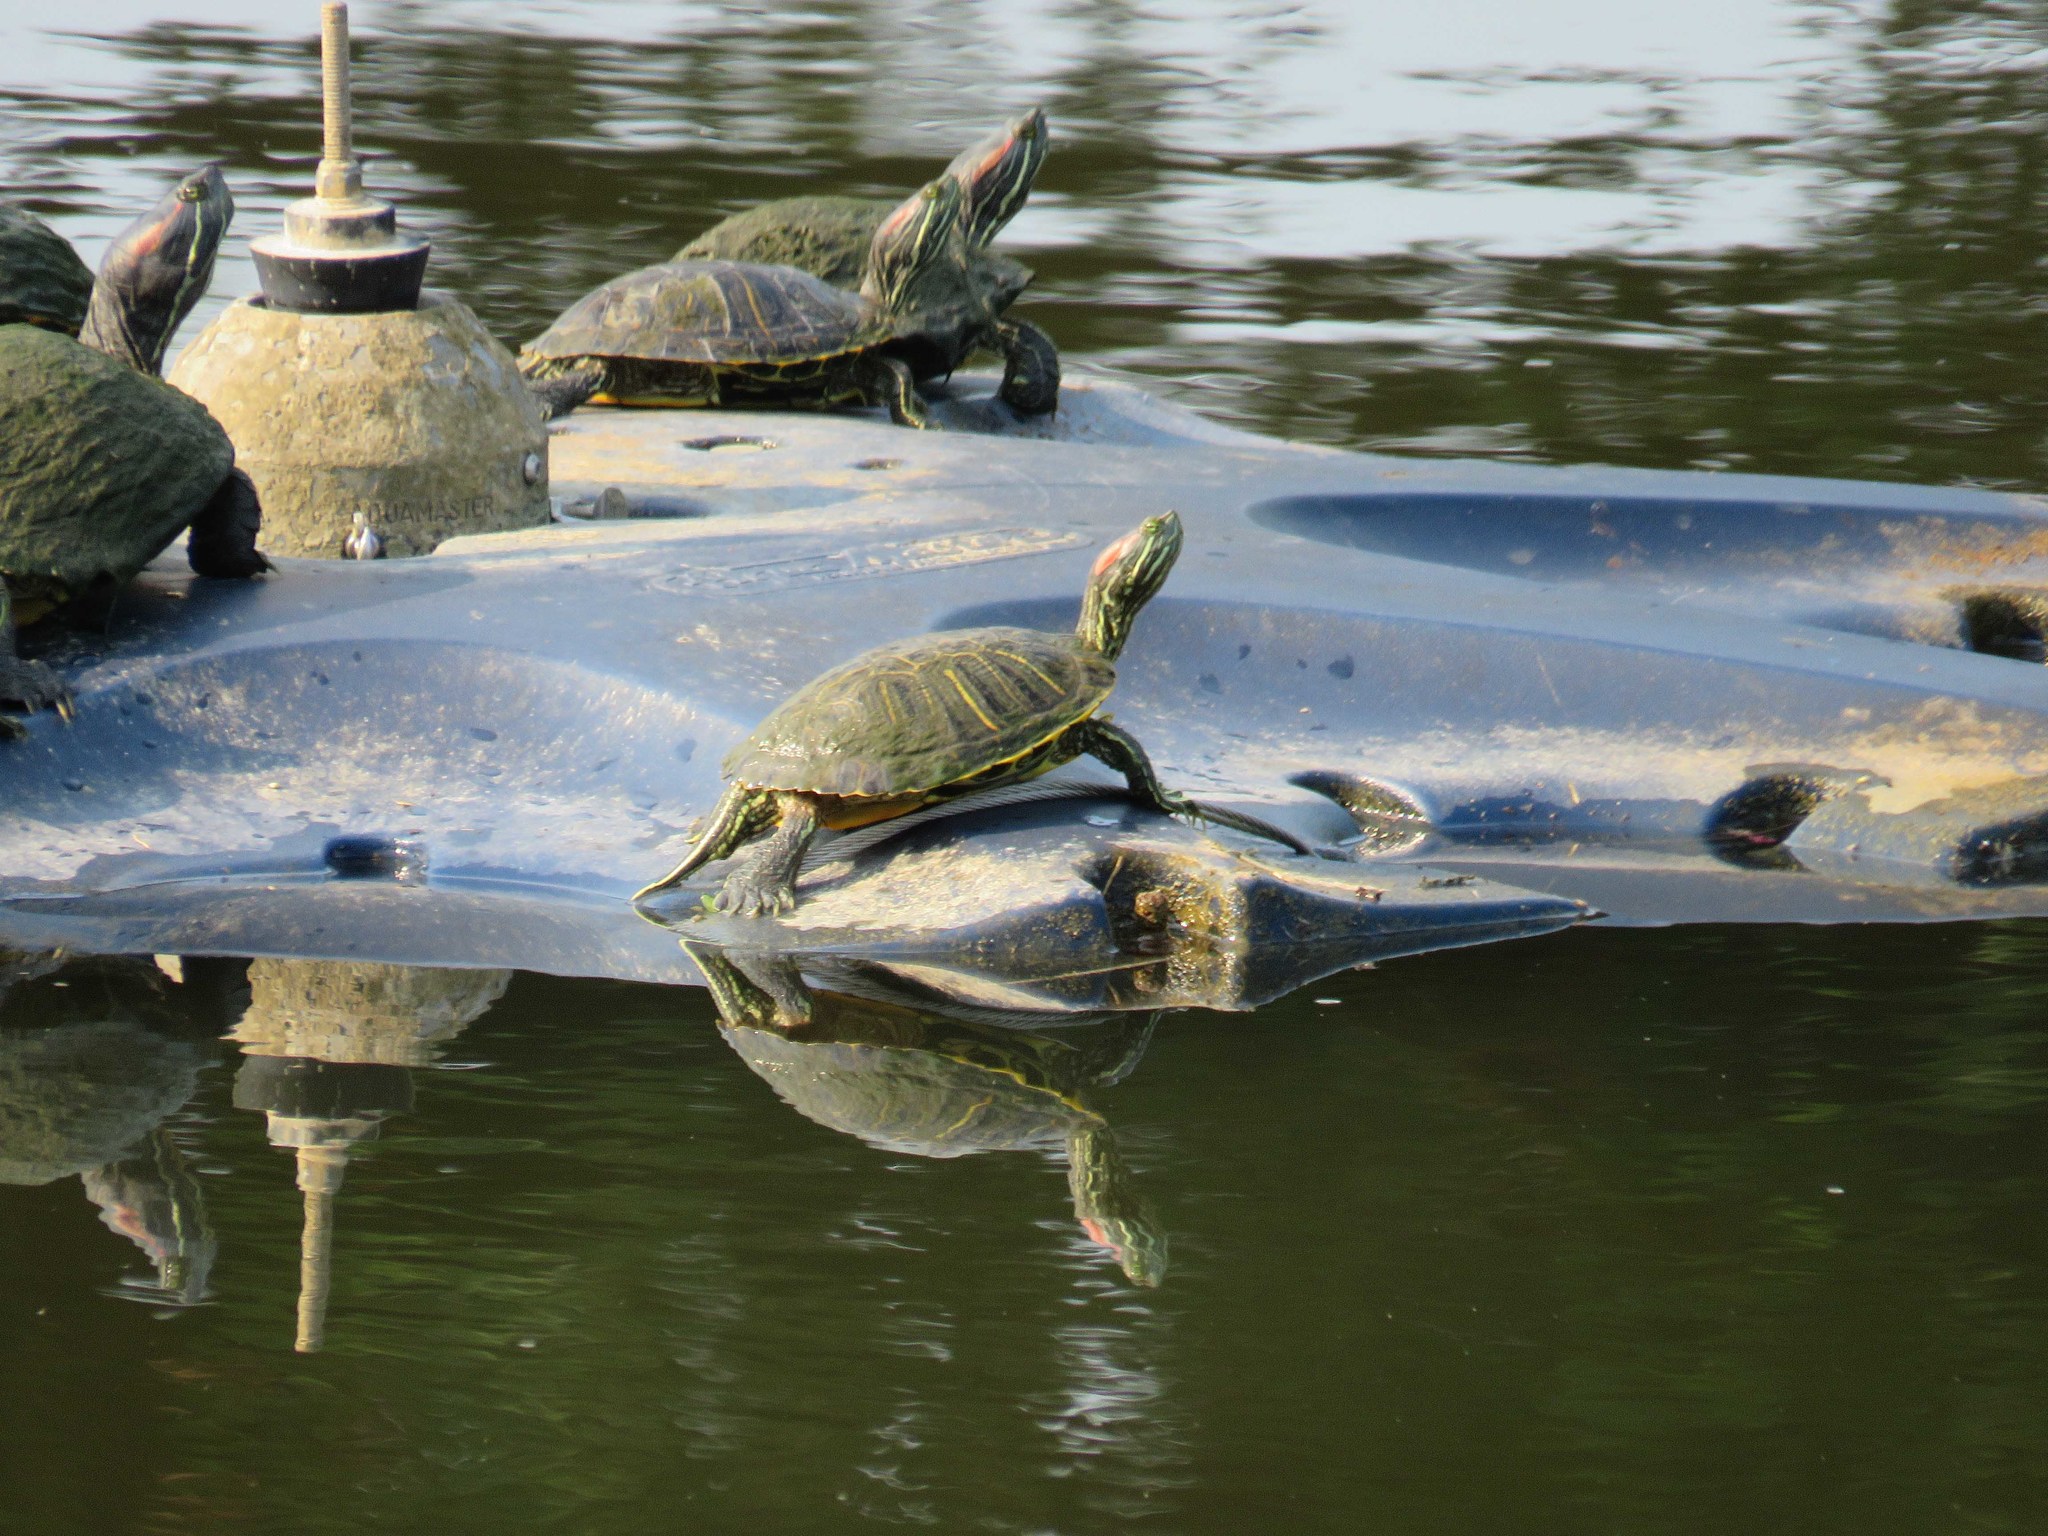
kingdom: Animalia
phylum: Chordata
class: Testudines
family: Emydidae
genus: Trachemys
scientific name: Trachemys scripta
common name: Slider
